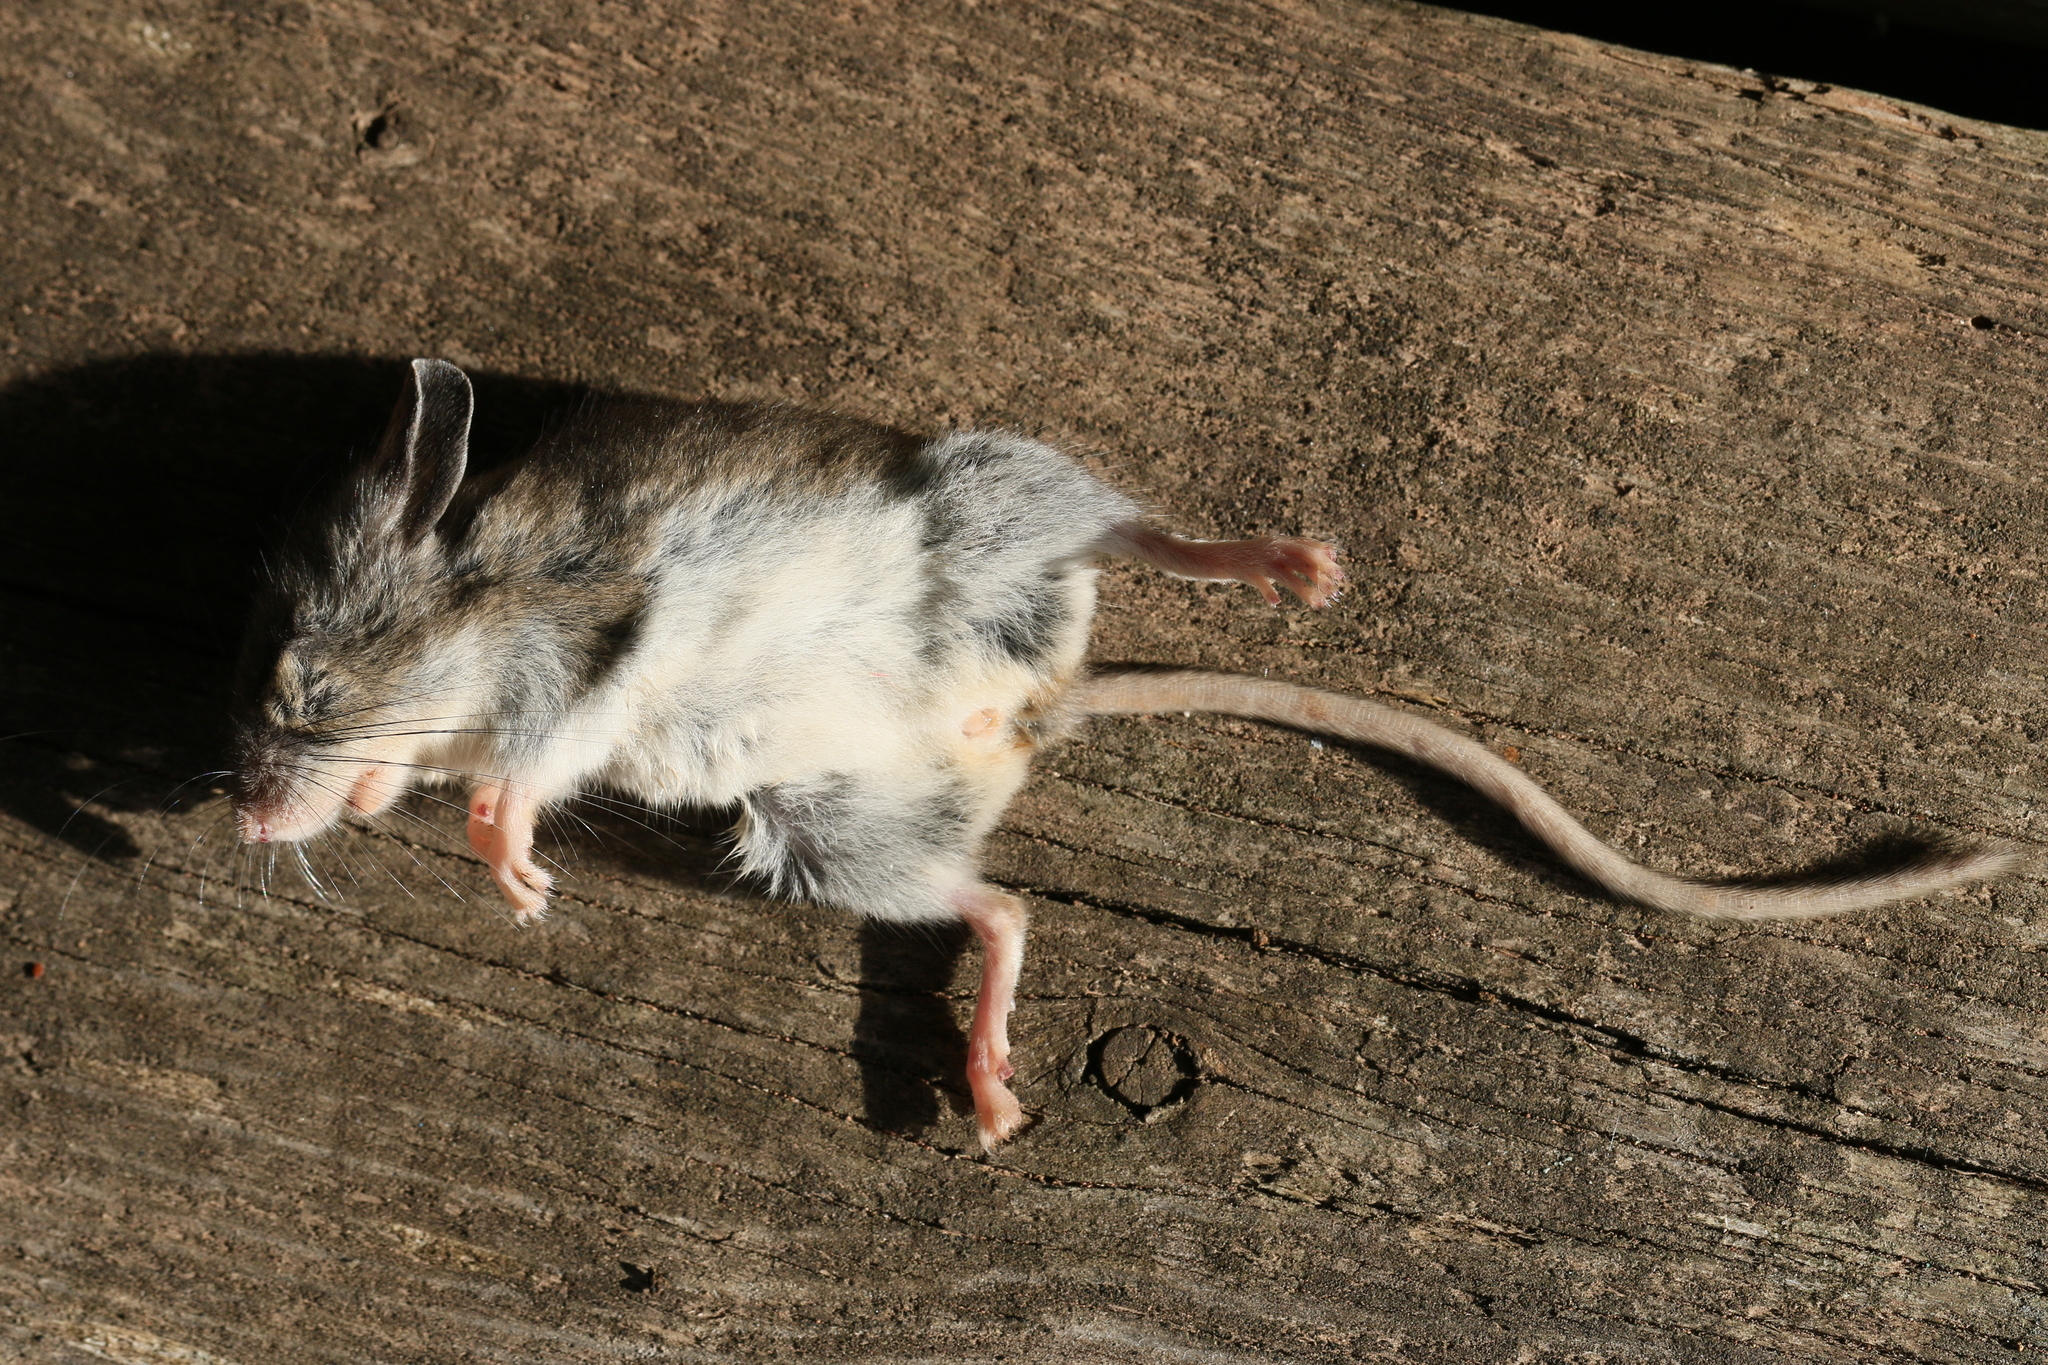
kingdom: Animalia
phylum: Chordata
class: Mammalia
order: Rodentia
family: Cricetidae
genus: Peromyscus
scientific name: Peromyscus maniculatus
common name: Deer mouse
